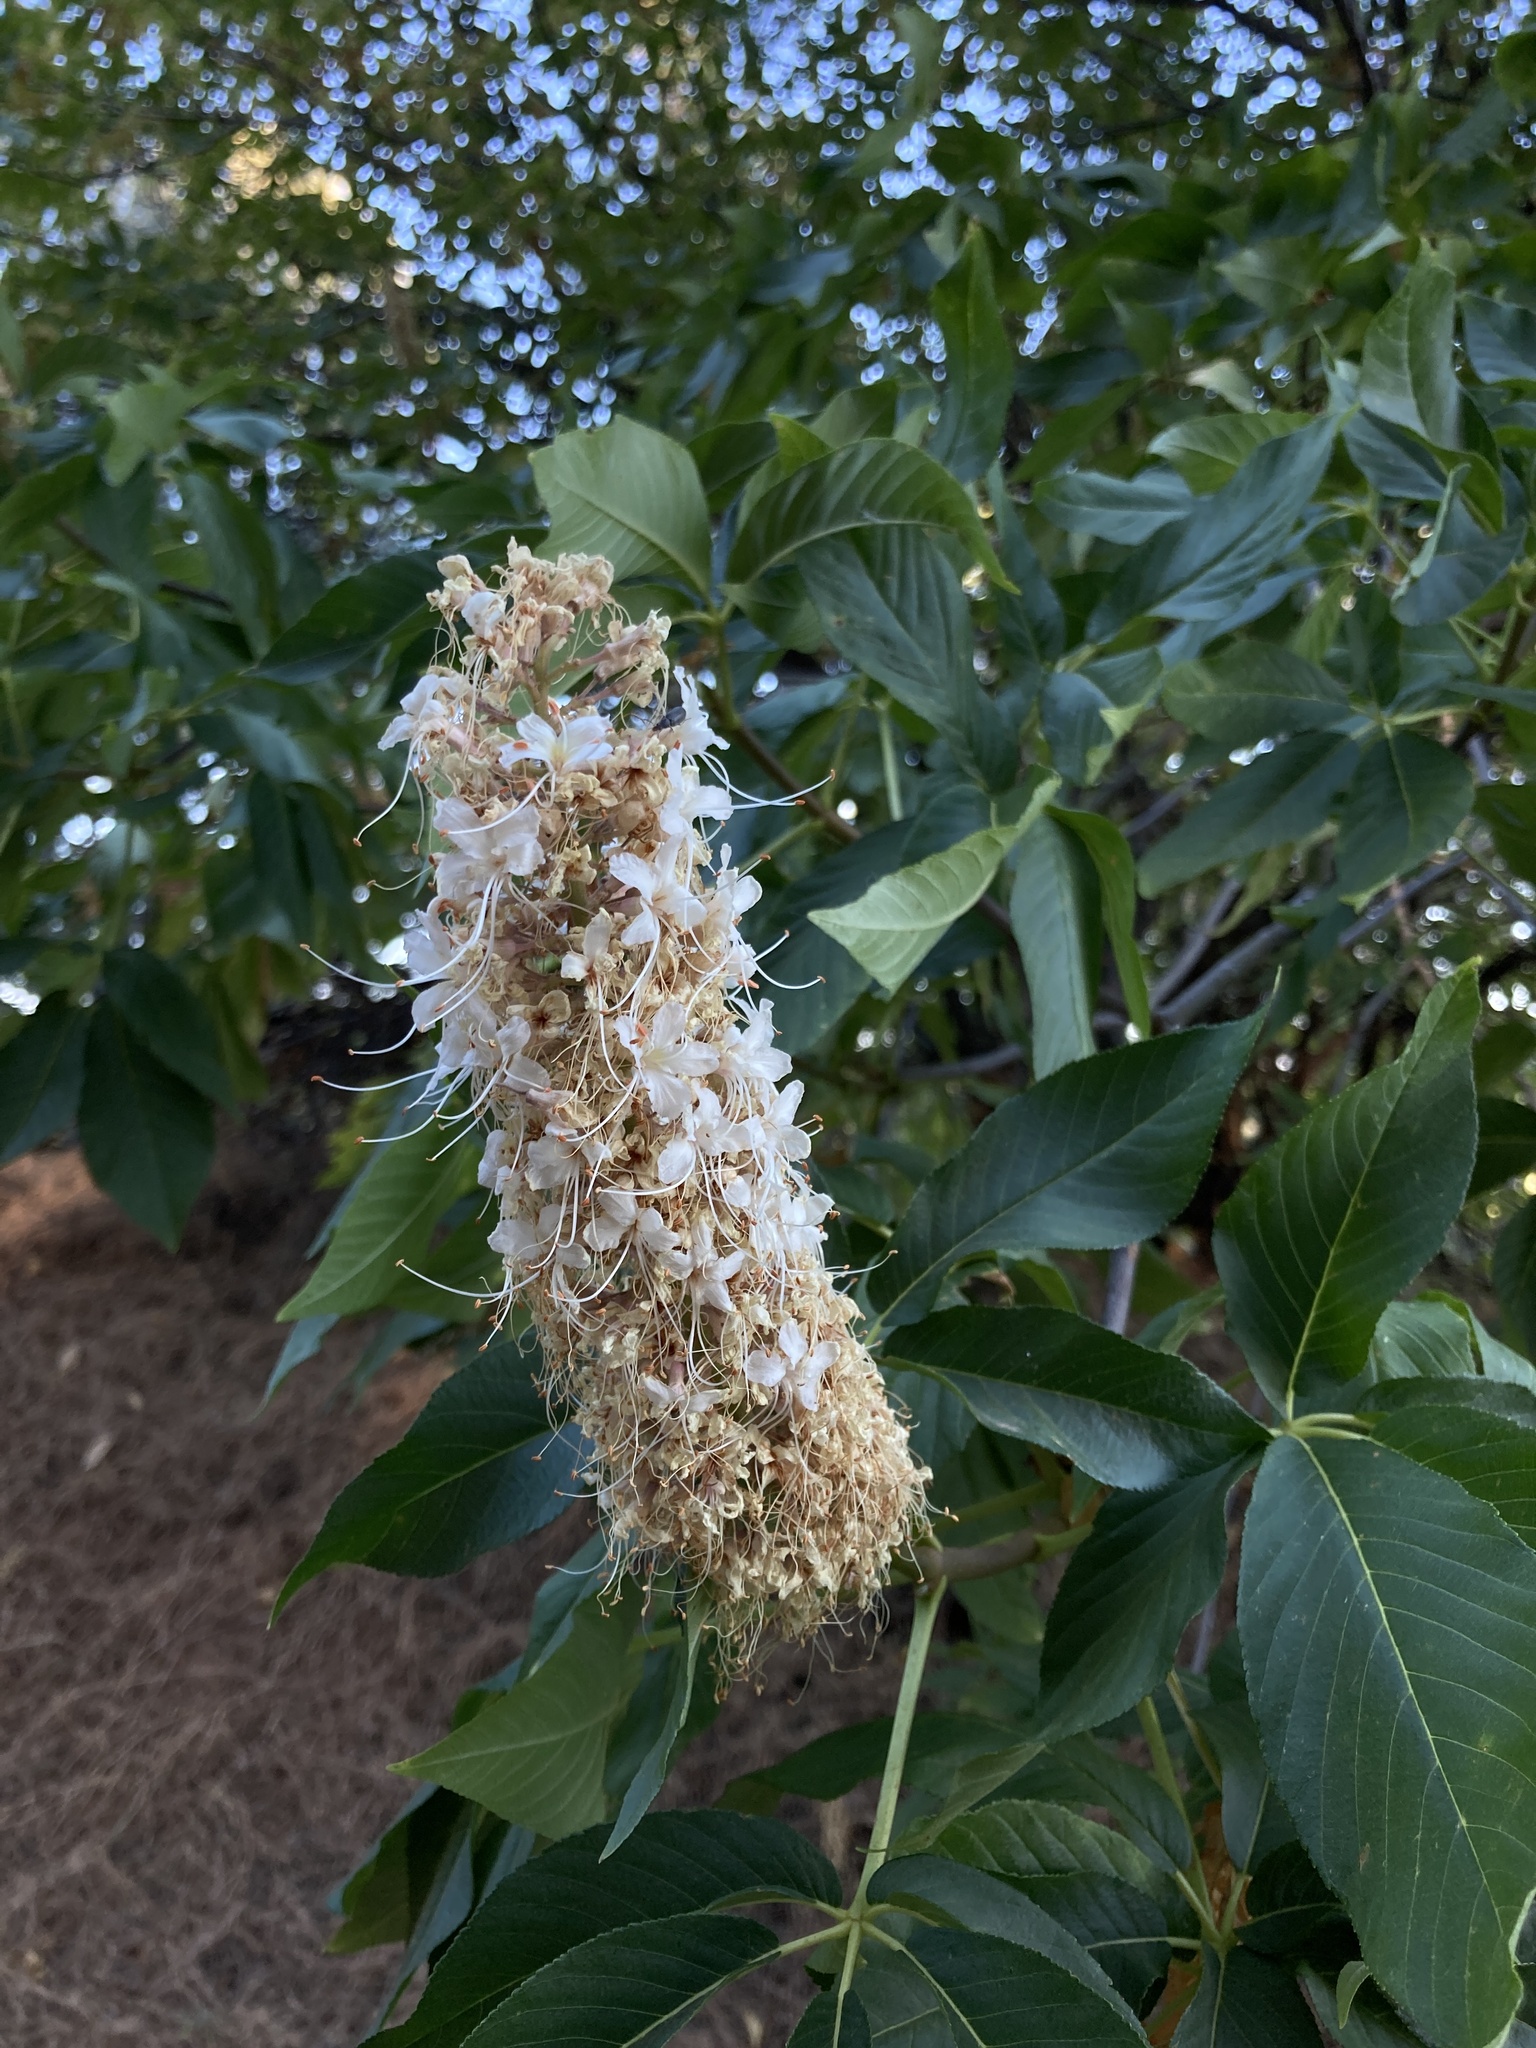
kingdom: Plantae
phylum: Tracheophyta
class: Magnoliopsida
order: Sapindales
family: Sapindaceae
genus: Aesculus
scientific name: Aesculus californica
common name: California buckeye
